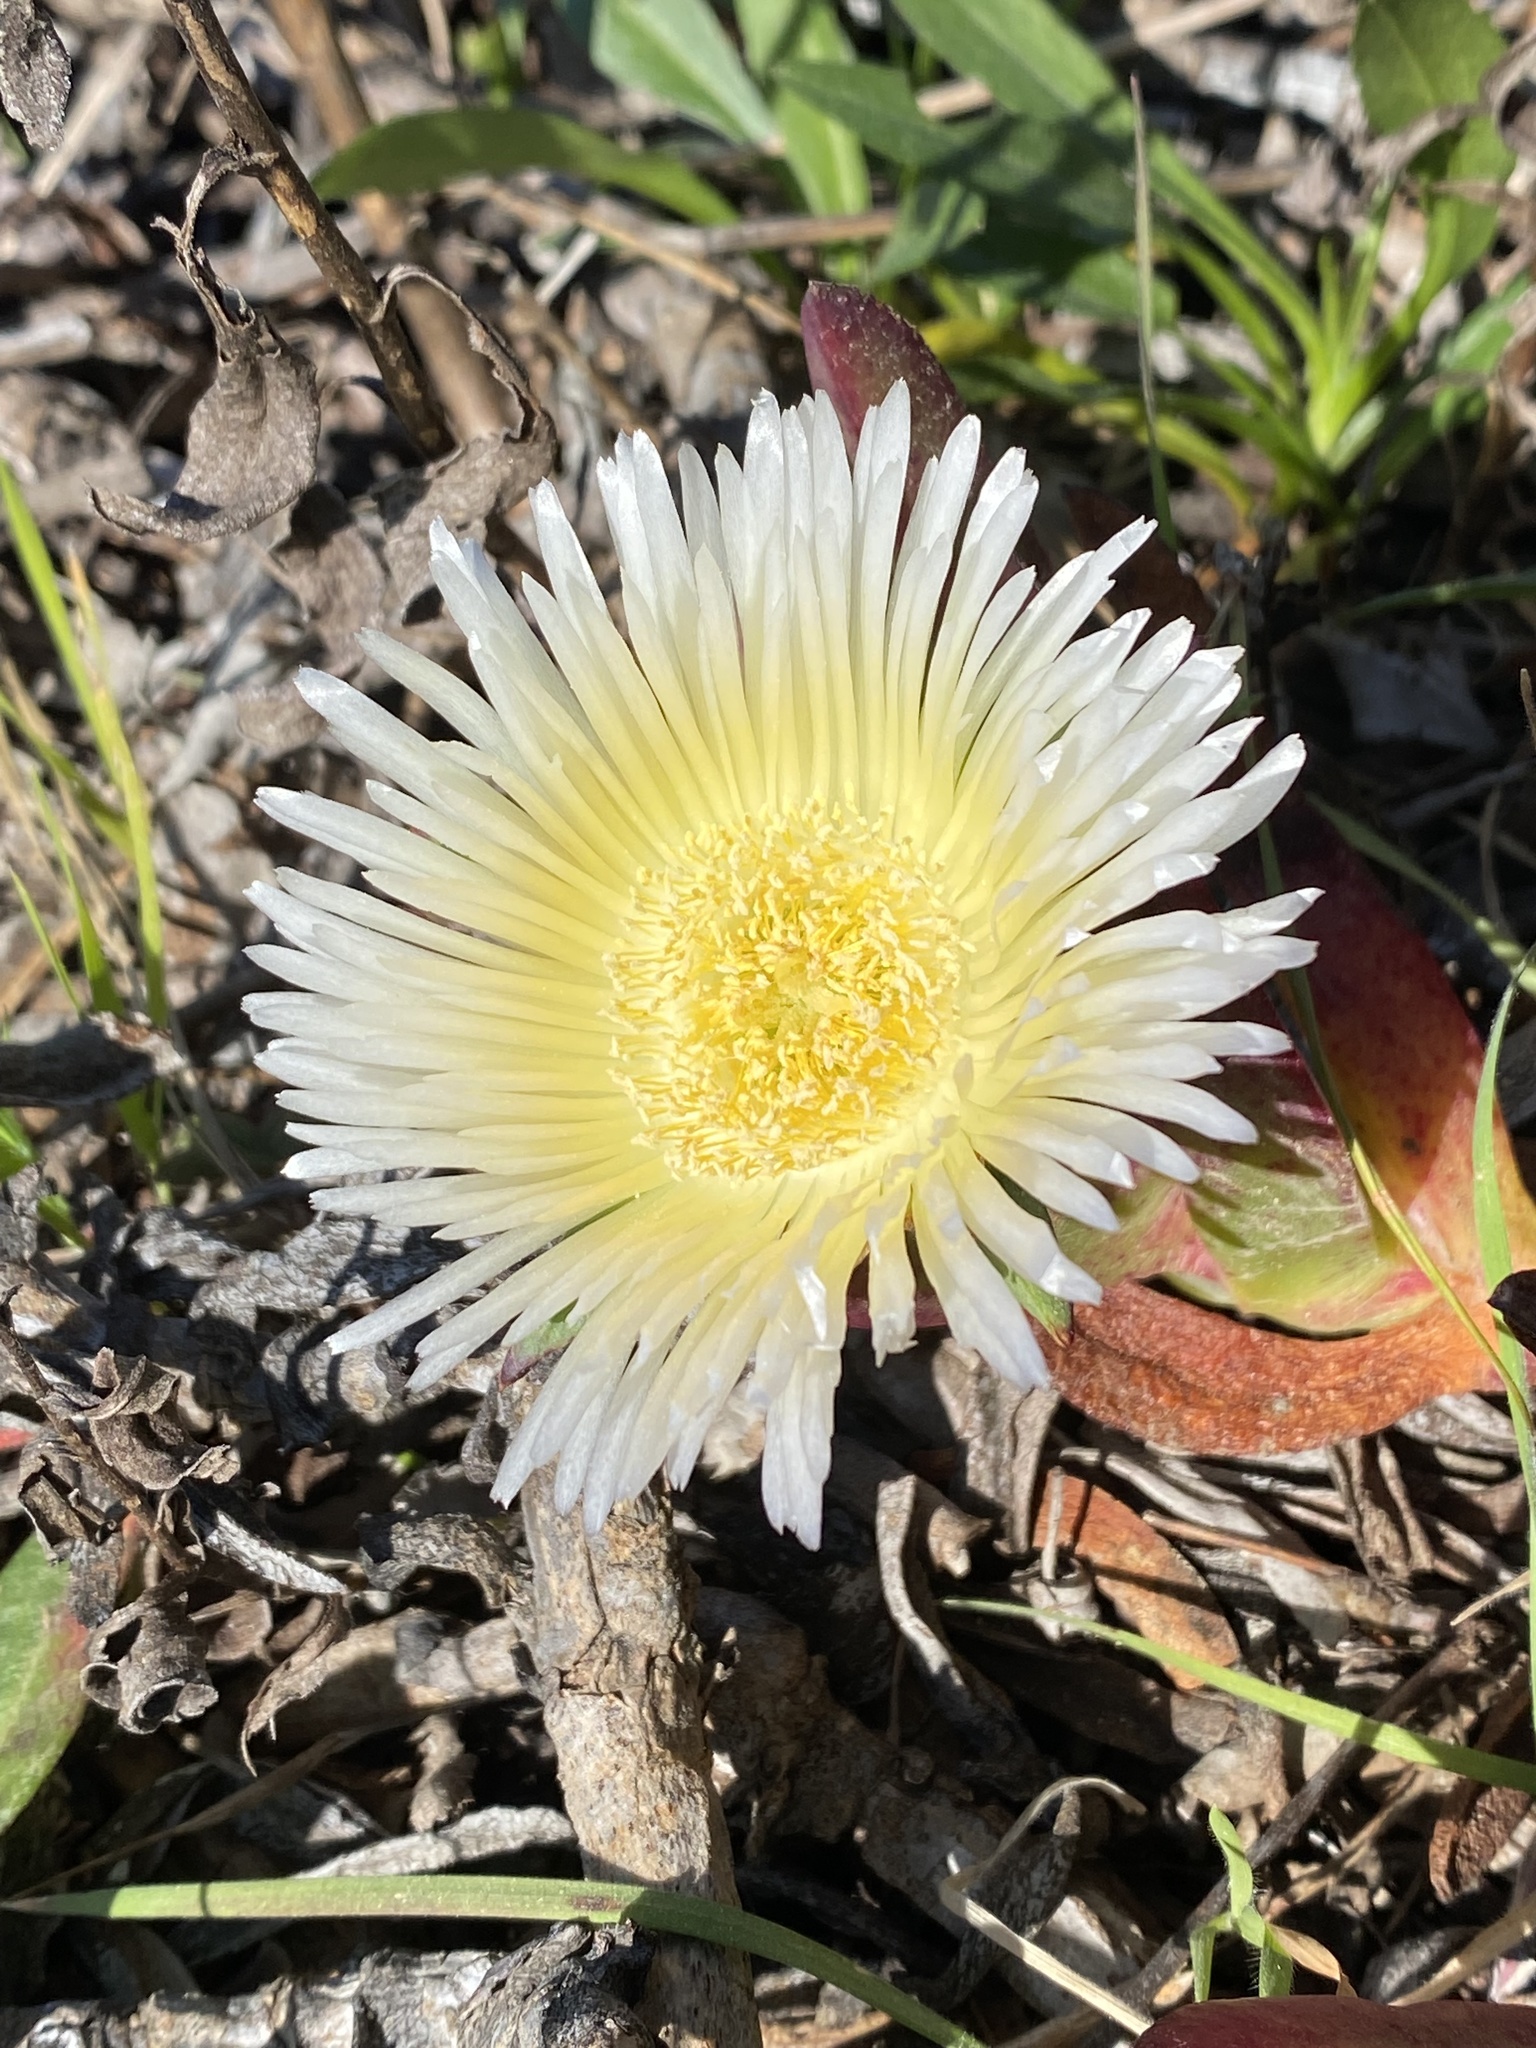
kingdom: Plantae
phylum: Tracheophyta
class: Magnoliopsida
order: Caryophyllales
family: Aizoaceae
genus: Carpobrotus
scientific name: Carpobrotus edulis
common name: Hottentot-fig
